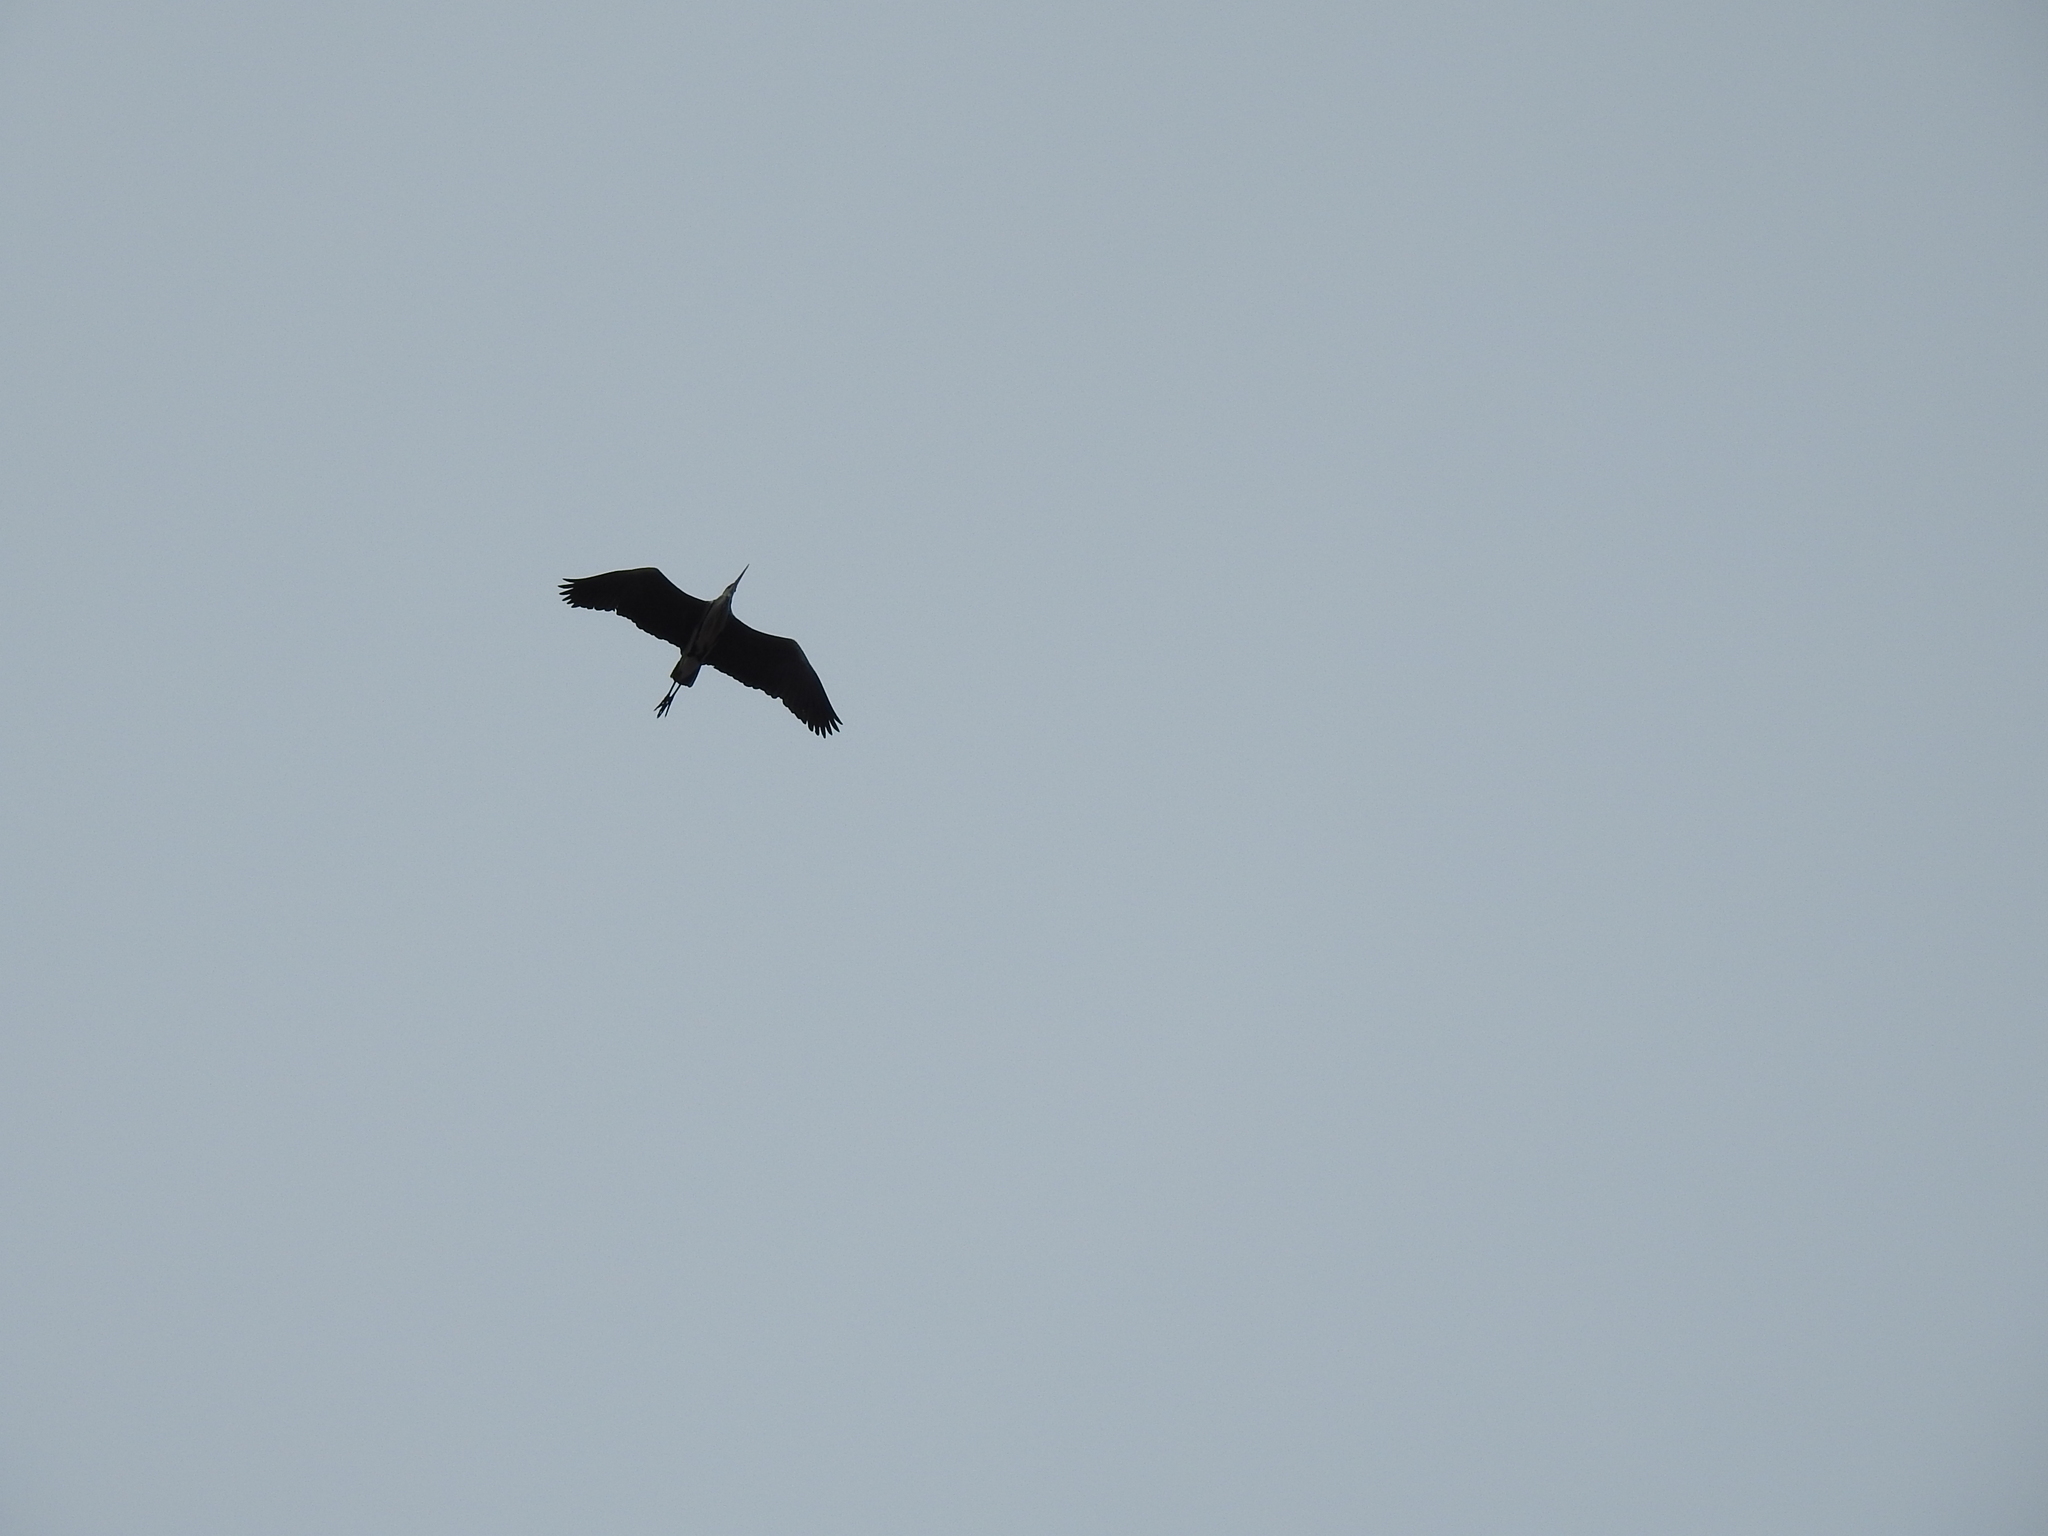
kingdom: Animalia
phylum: Chordata
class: Aves
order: Pelecaniformes
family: Ardeidae
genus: Ardea
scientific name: Ardea cinerea
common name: Grey heron
